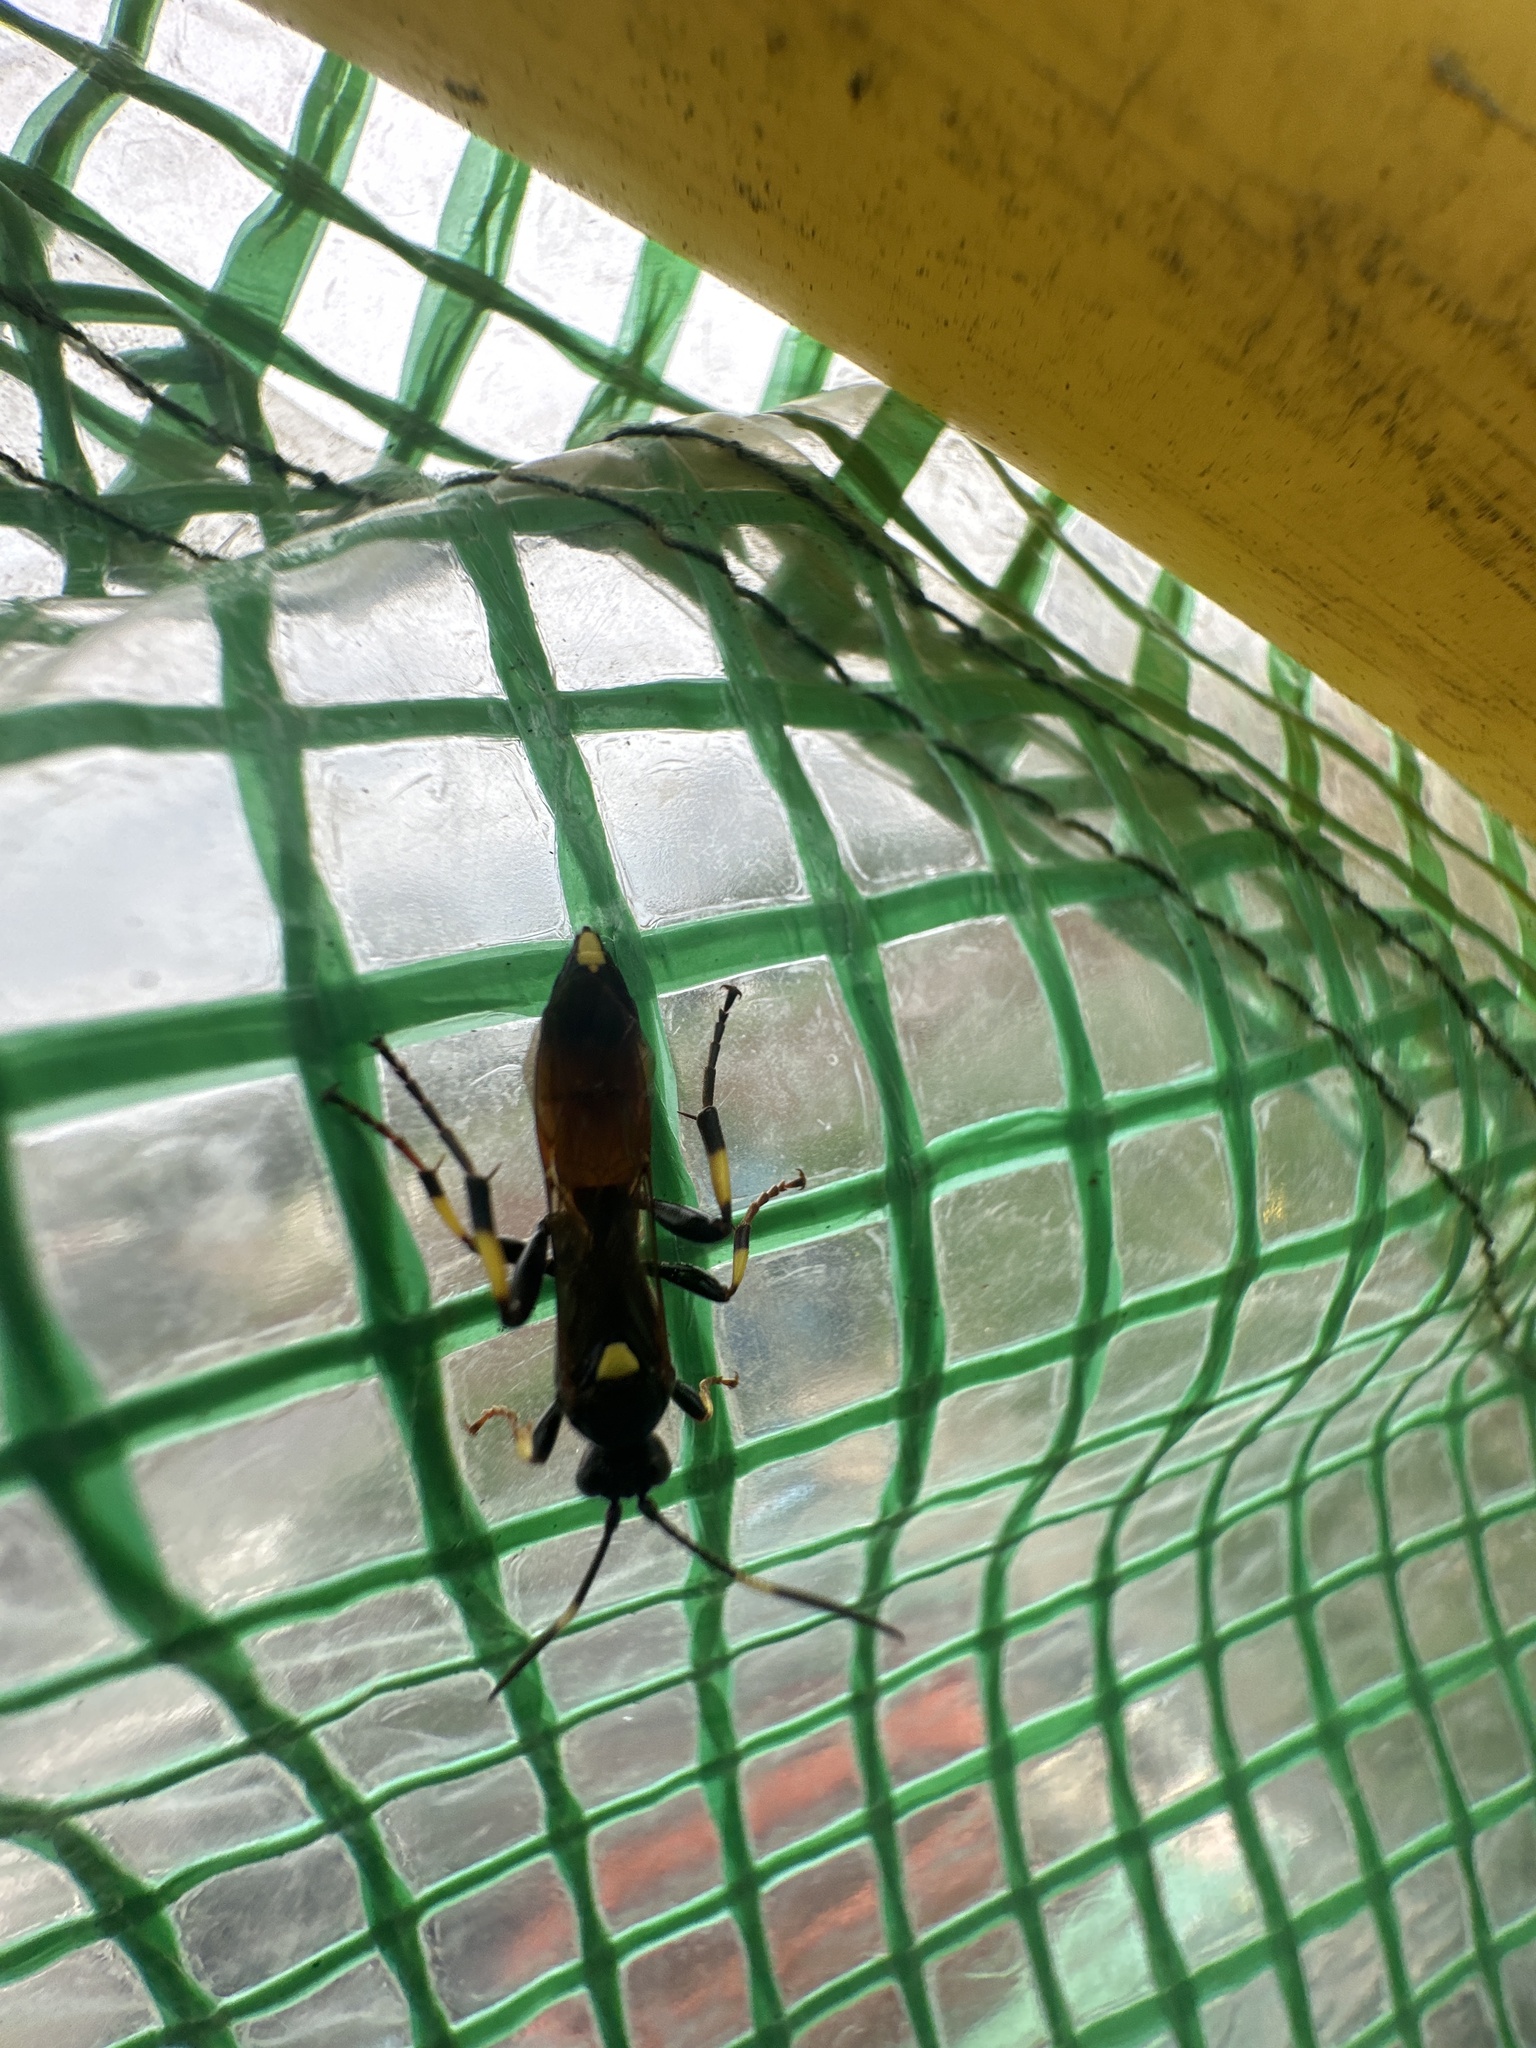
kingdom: Animalia
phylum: Arthropoda
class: Insecta
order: Hymenoptera
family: Ichneumonidae
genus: Ichneumon
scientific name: Ichneumon stramentor
